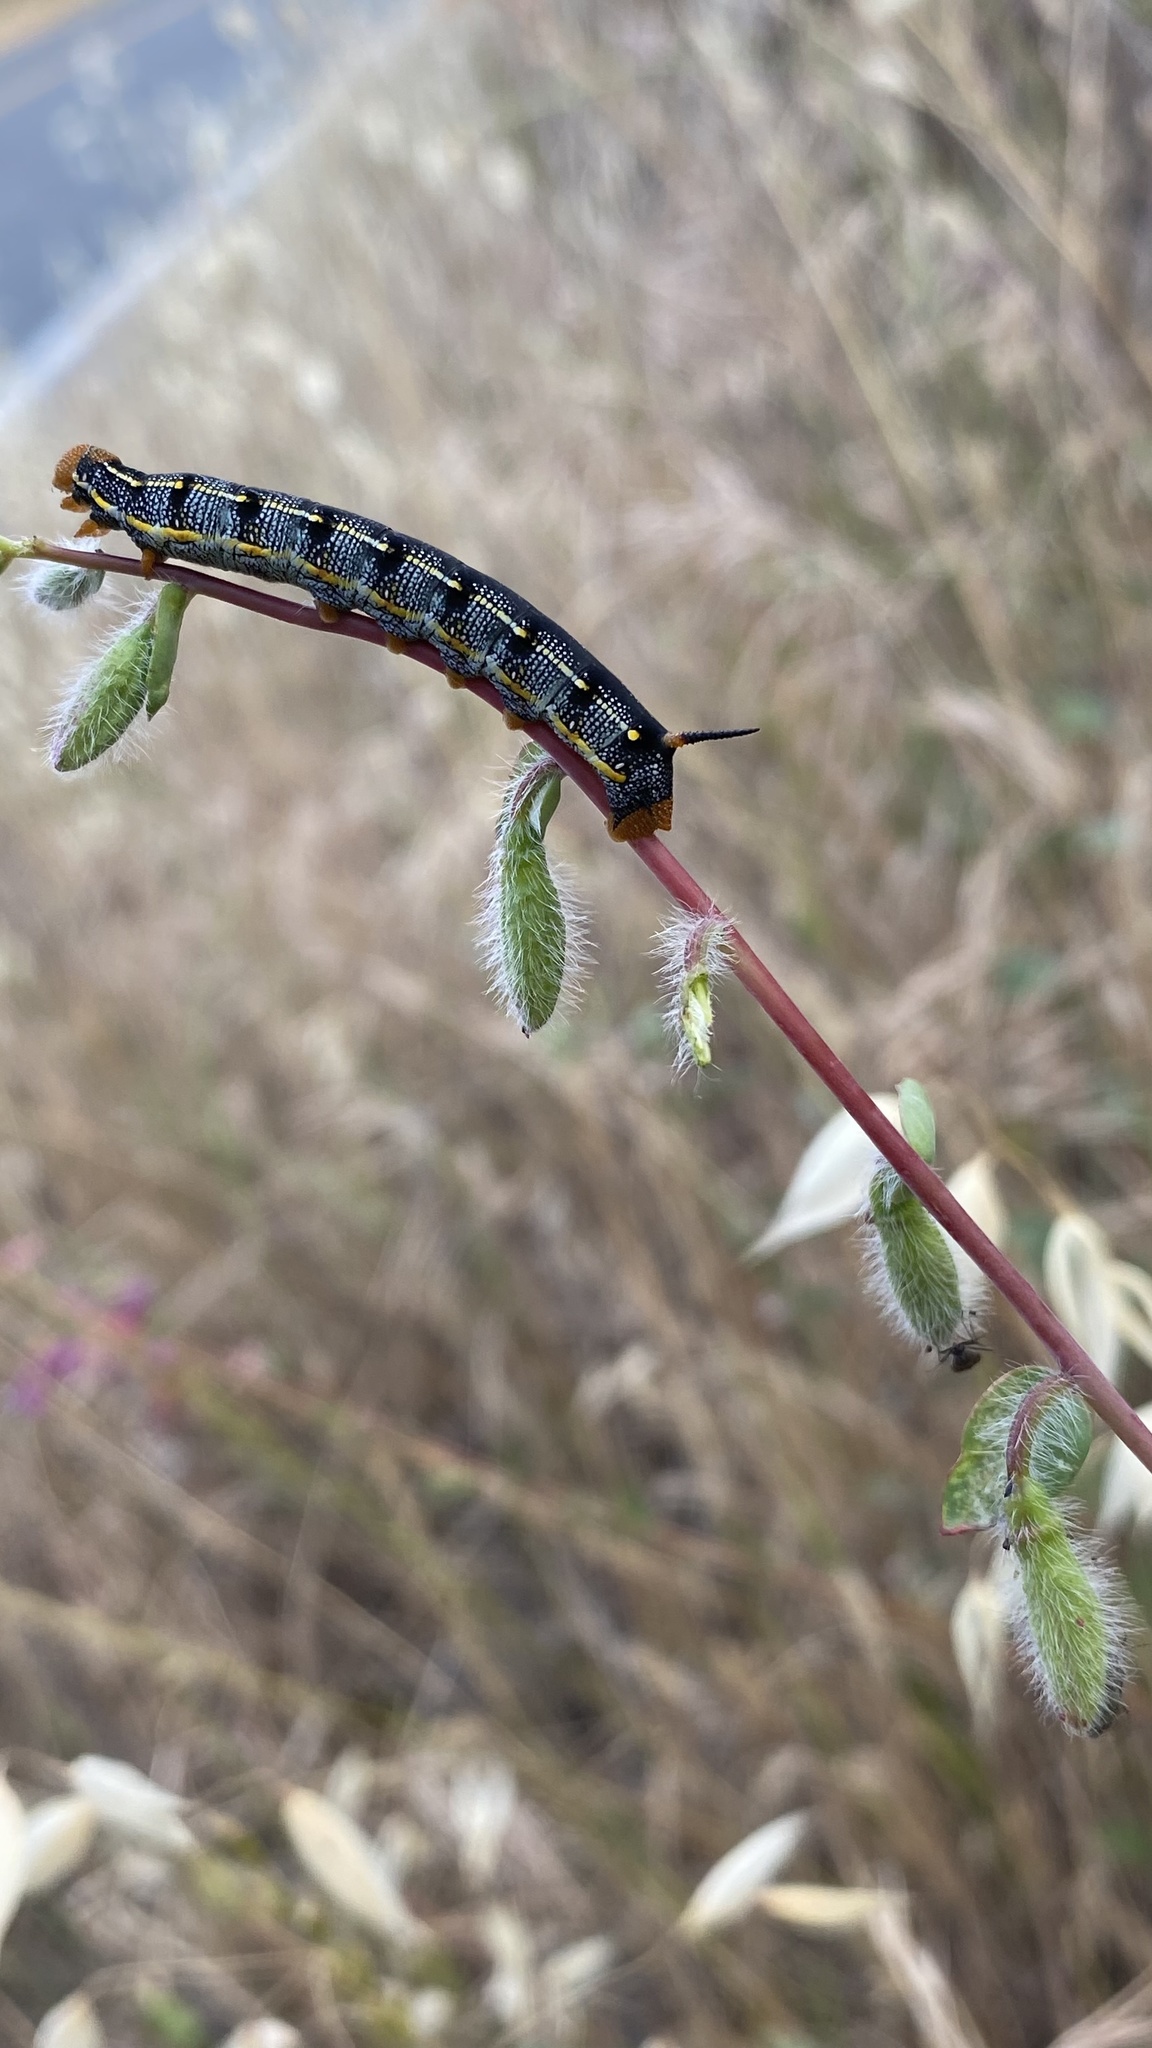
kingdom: Animalia
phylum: Arthropoda
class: Insecta
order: Lepidoptera
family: Sphingidae
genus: Hyles
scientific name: Hyles lineata
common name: White-lined sphinx
